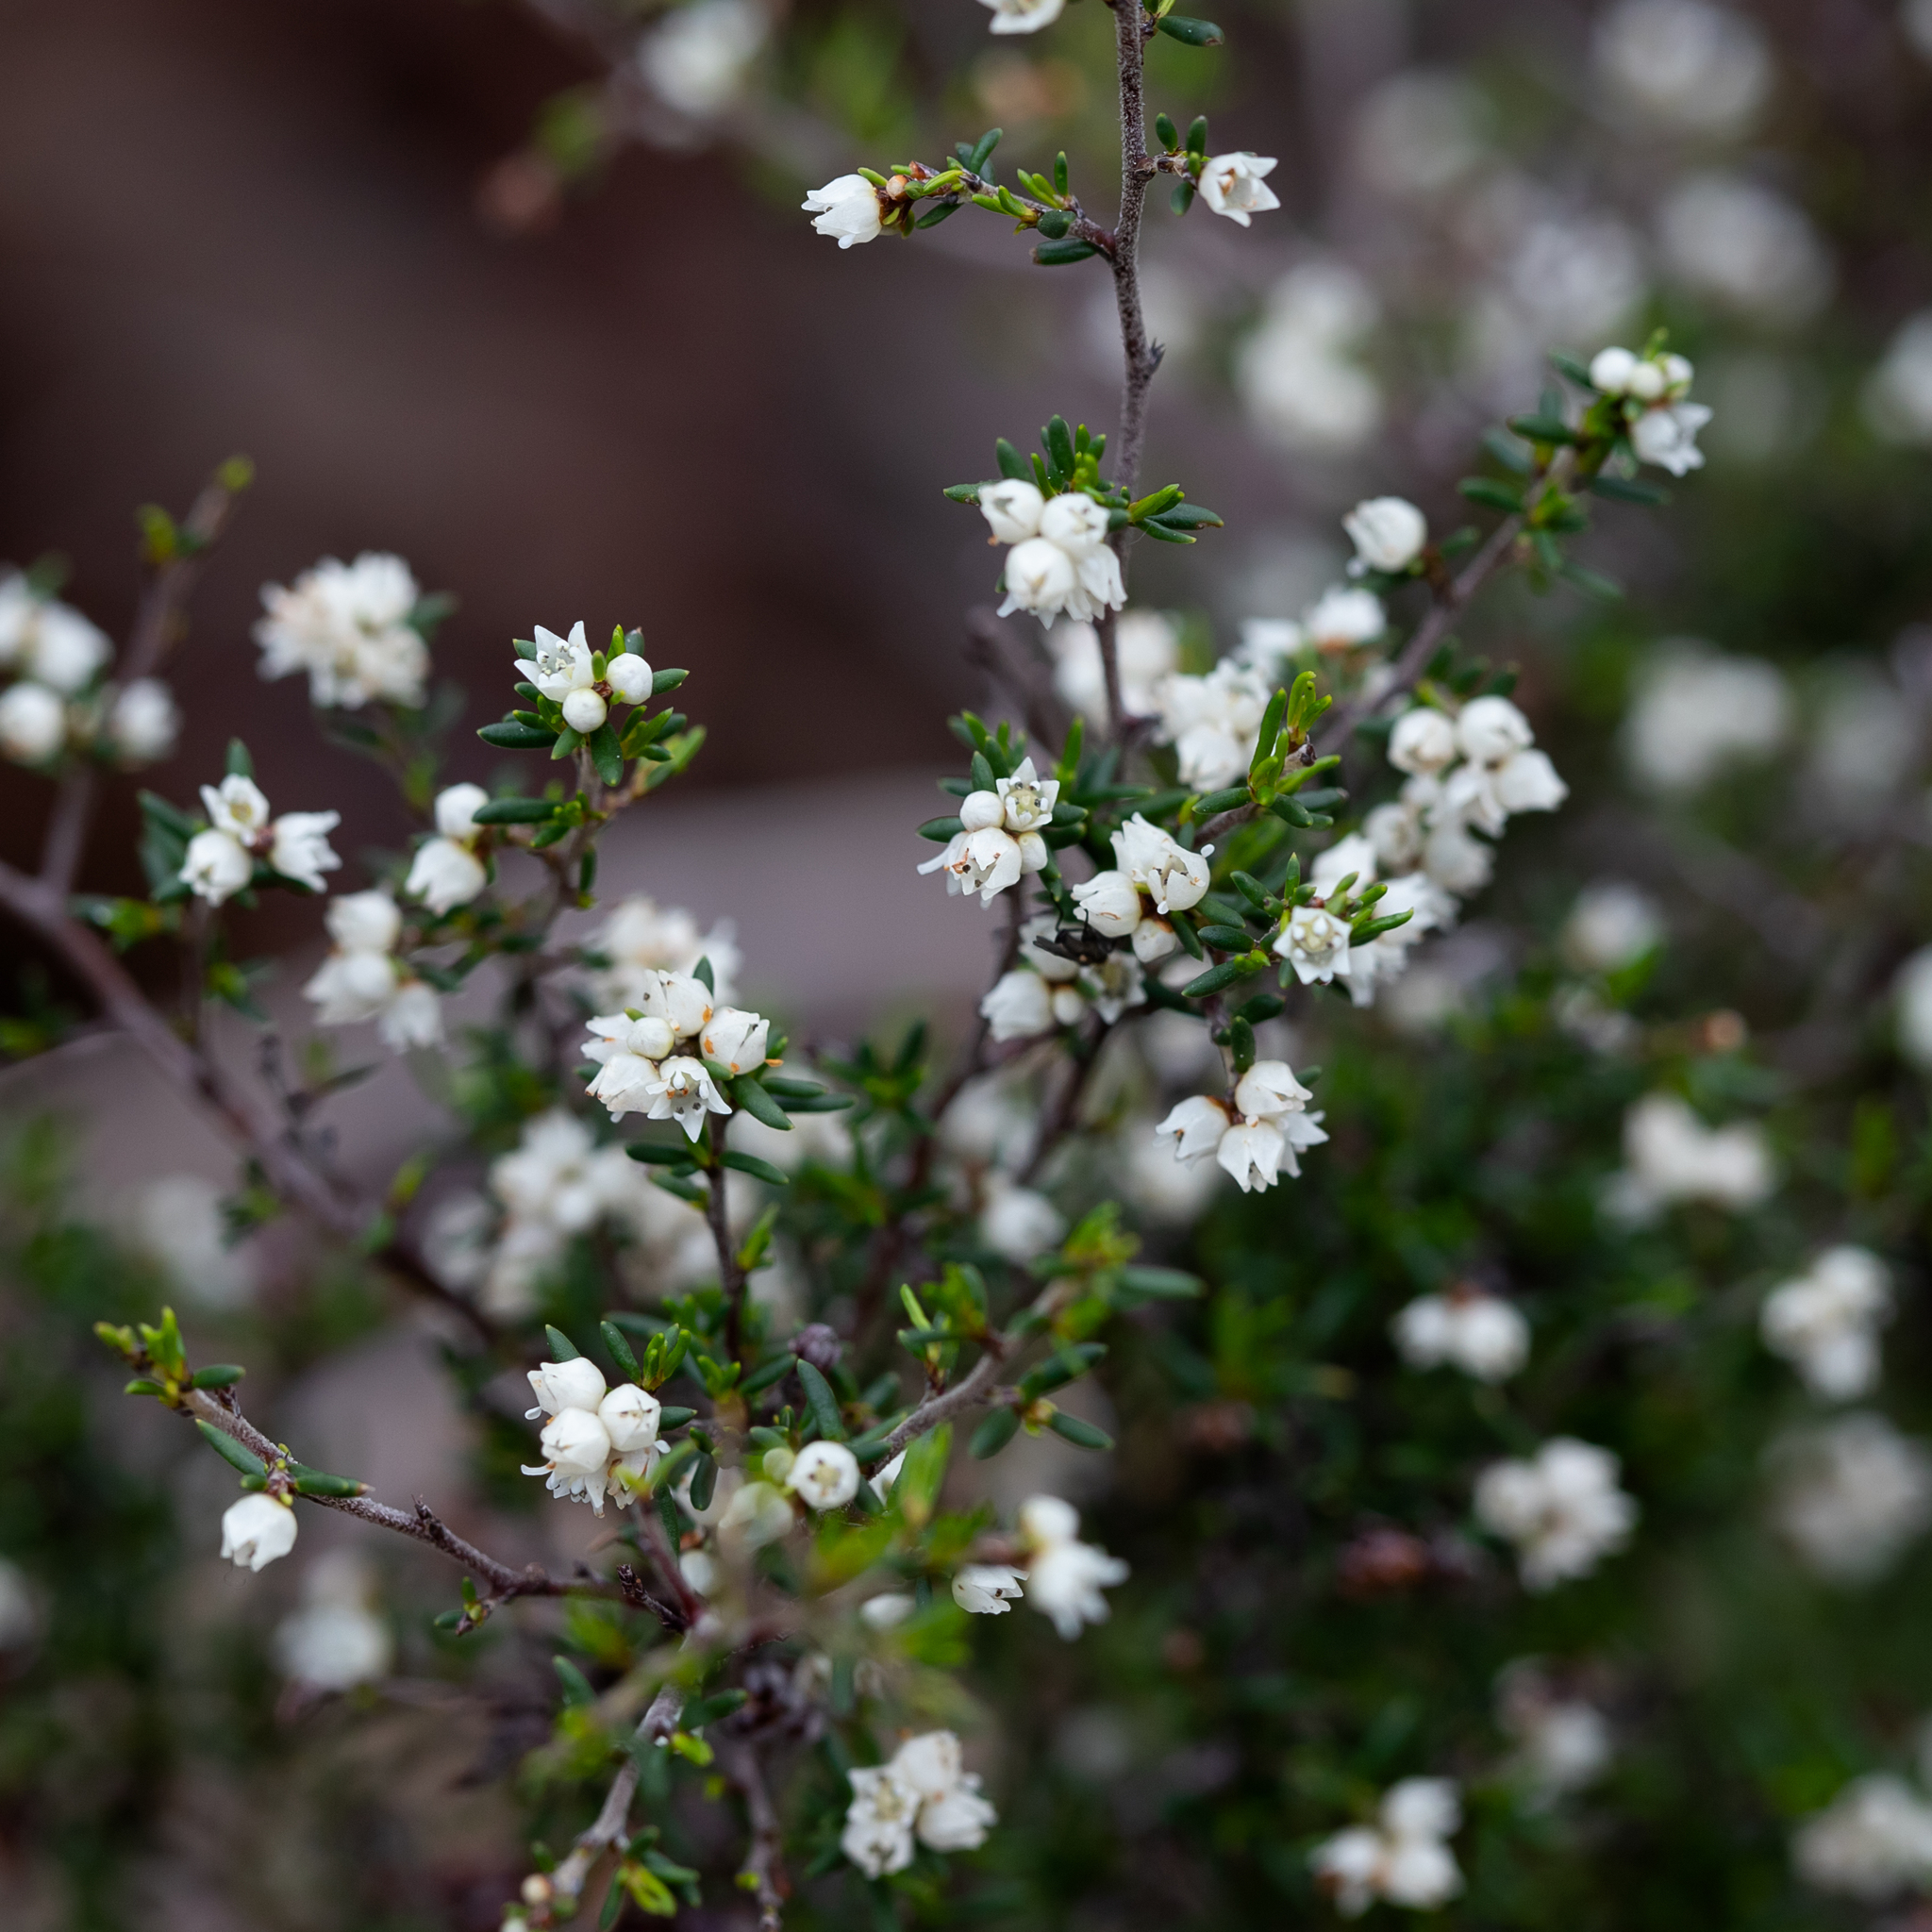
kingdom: Plantae
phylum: Tracheophyta
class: Magnoliopsida
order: Rosales
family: Rhamnaceae
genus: Cryptandra
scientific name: Cryptandra tomentosa
